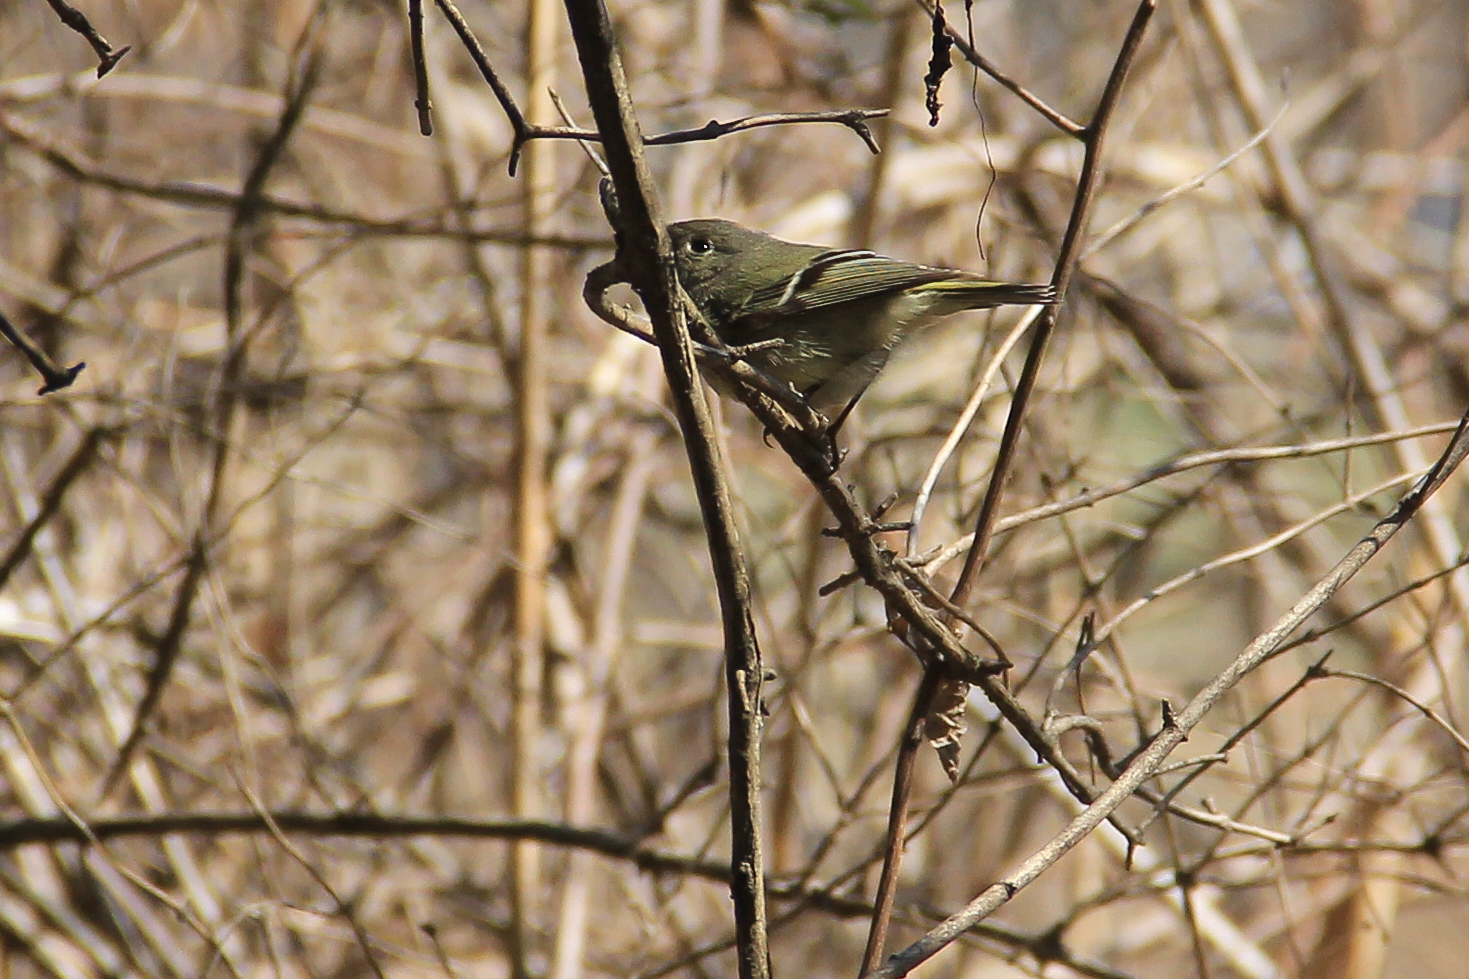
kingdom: Animalia
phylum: Chordata
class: Aves
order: Passeriformes
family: Regulidae
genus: Regulus
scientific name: Regulus calendula
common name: Ruby-crowned kinglet
